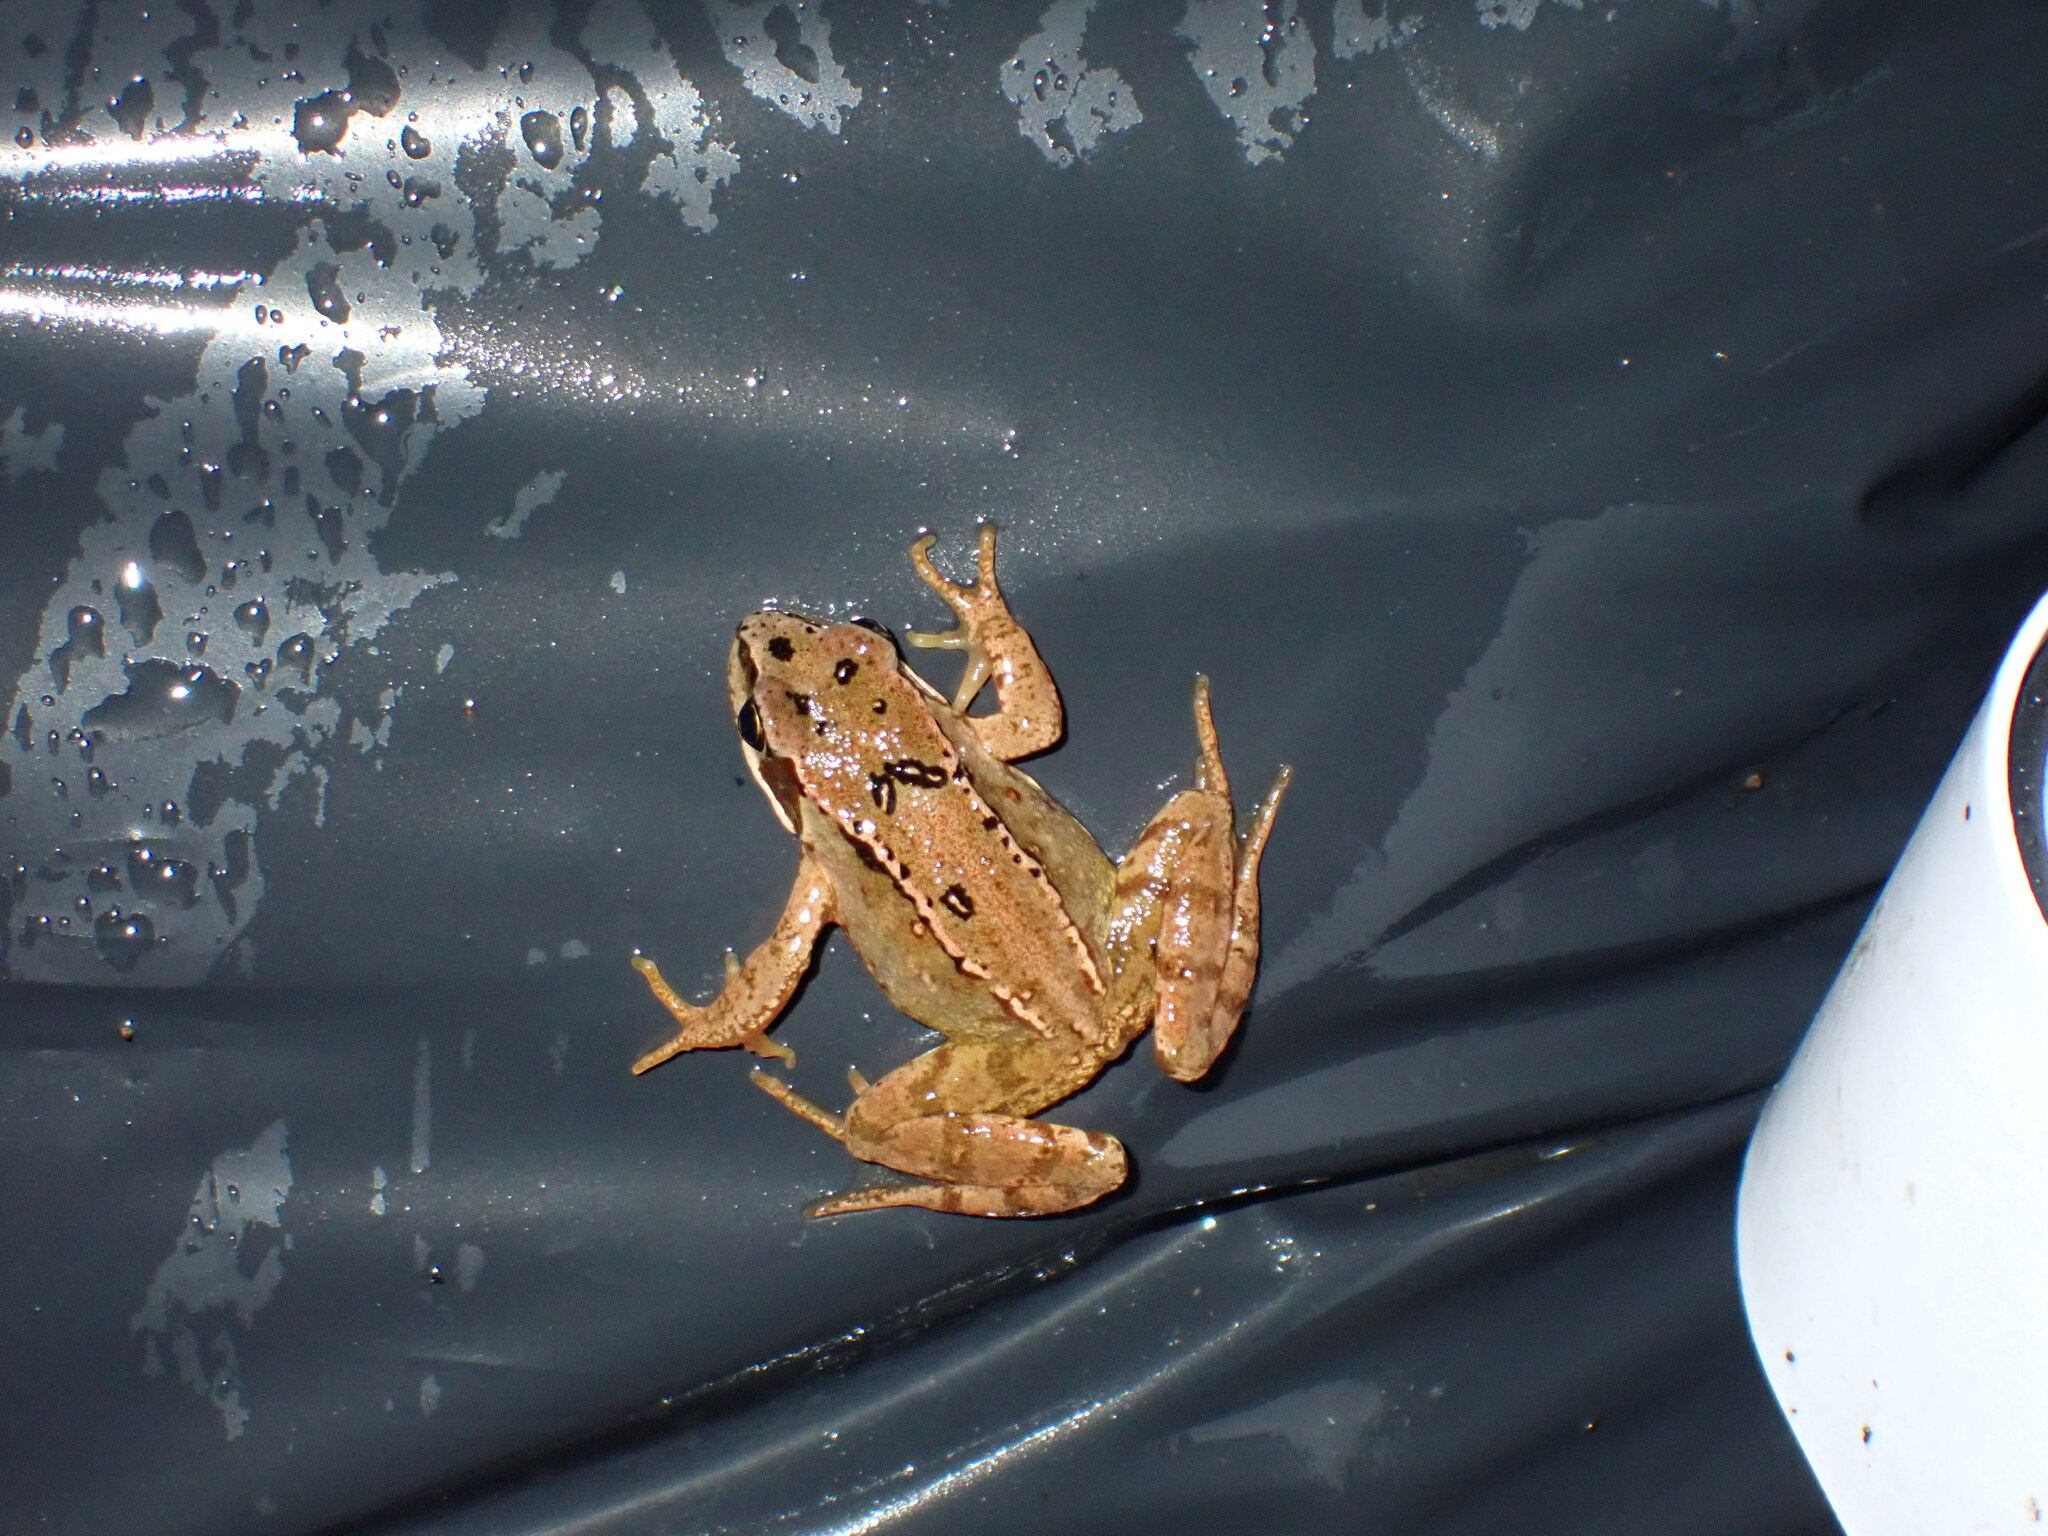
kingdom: Animalia
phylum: Chordata
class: Amphibia
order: Anura
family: Ranidae
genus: Rana
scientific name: Rana temporaria
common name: Common frog
